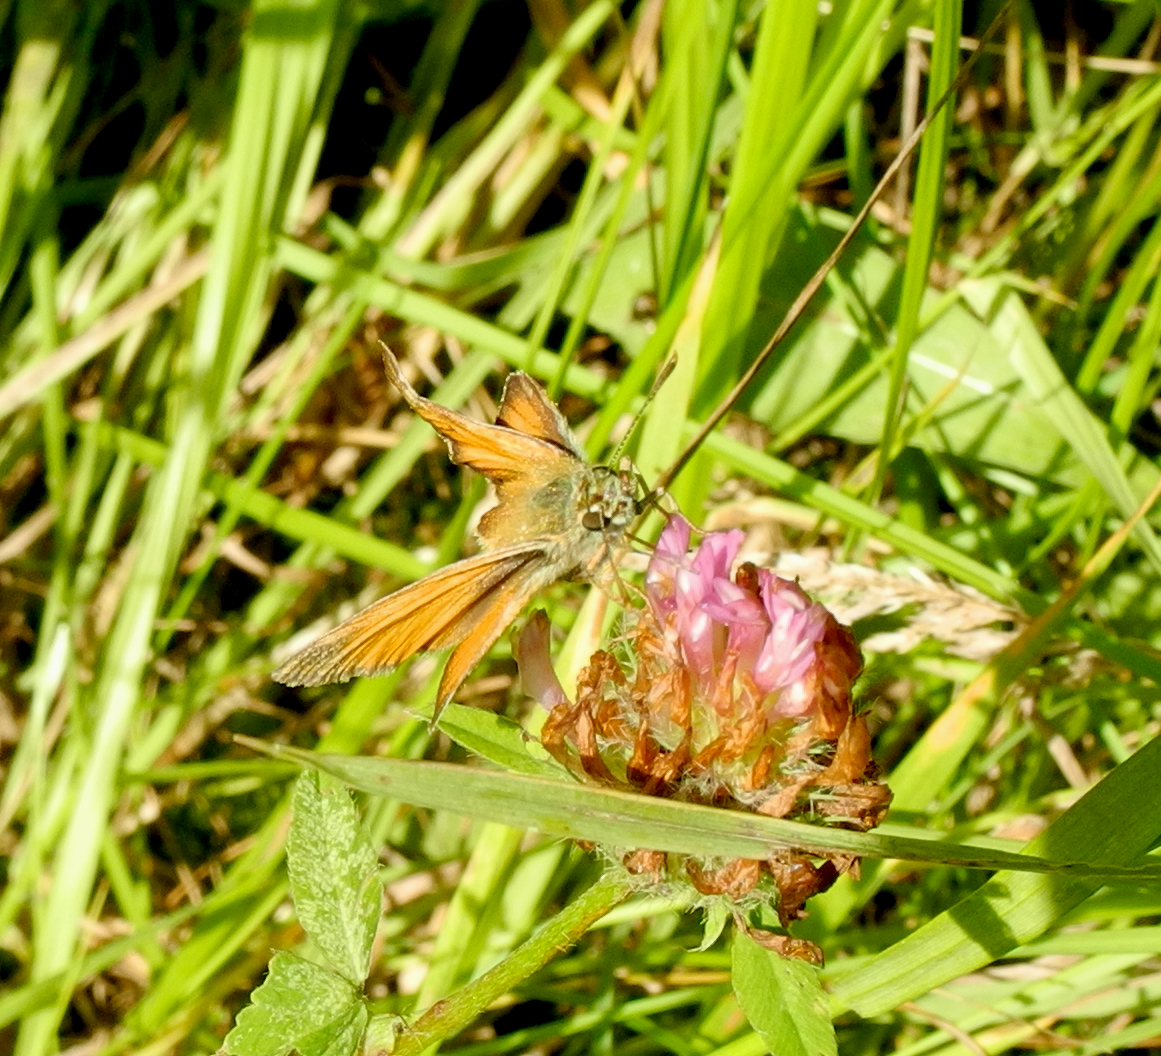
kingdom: Animalia
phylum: Arthropoda
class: Insecta
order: Lepidoptera
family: Hesperiidae
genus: Thymelicus
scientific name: Thymelicus sylvestris
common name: Small skipper
